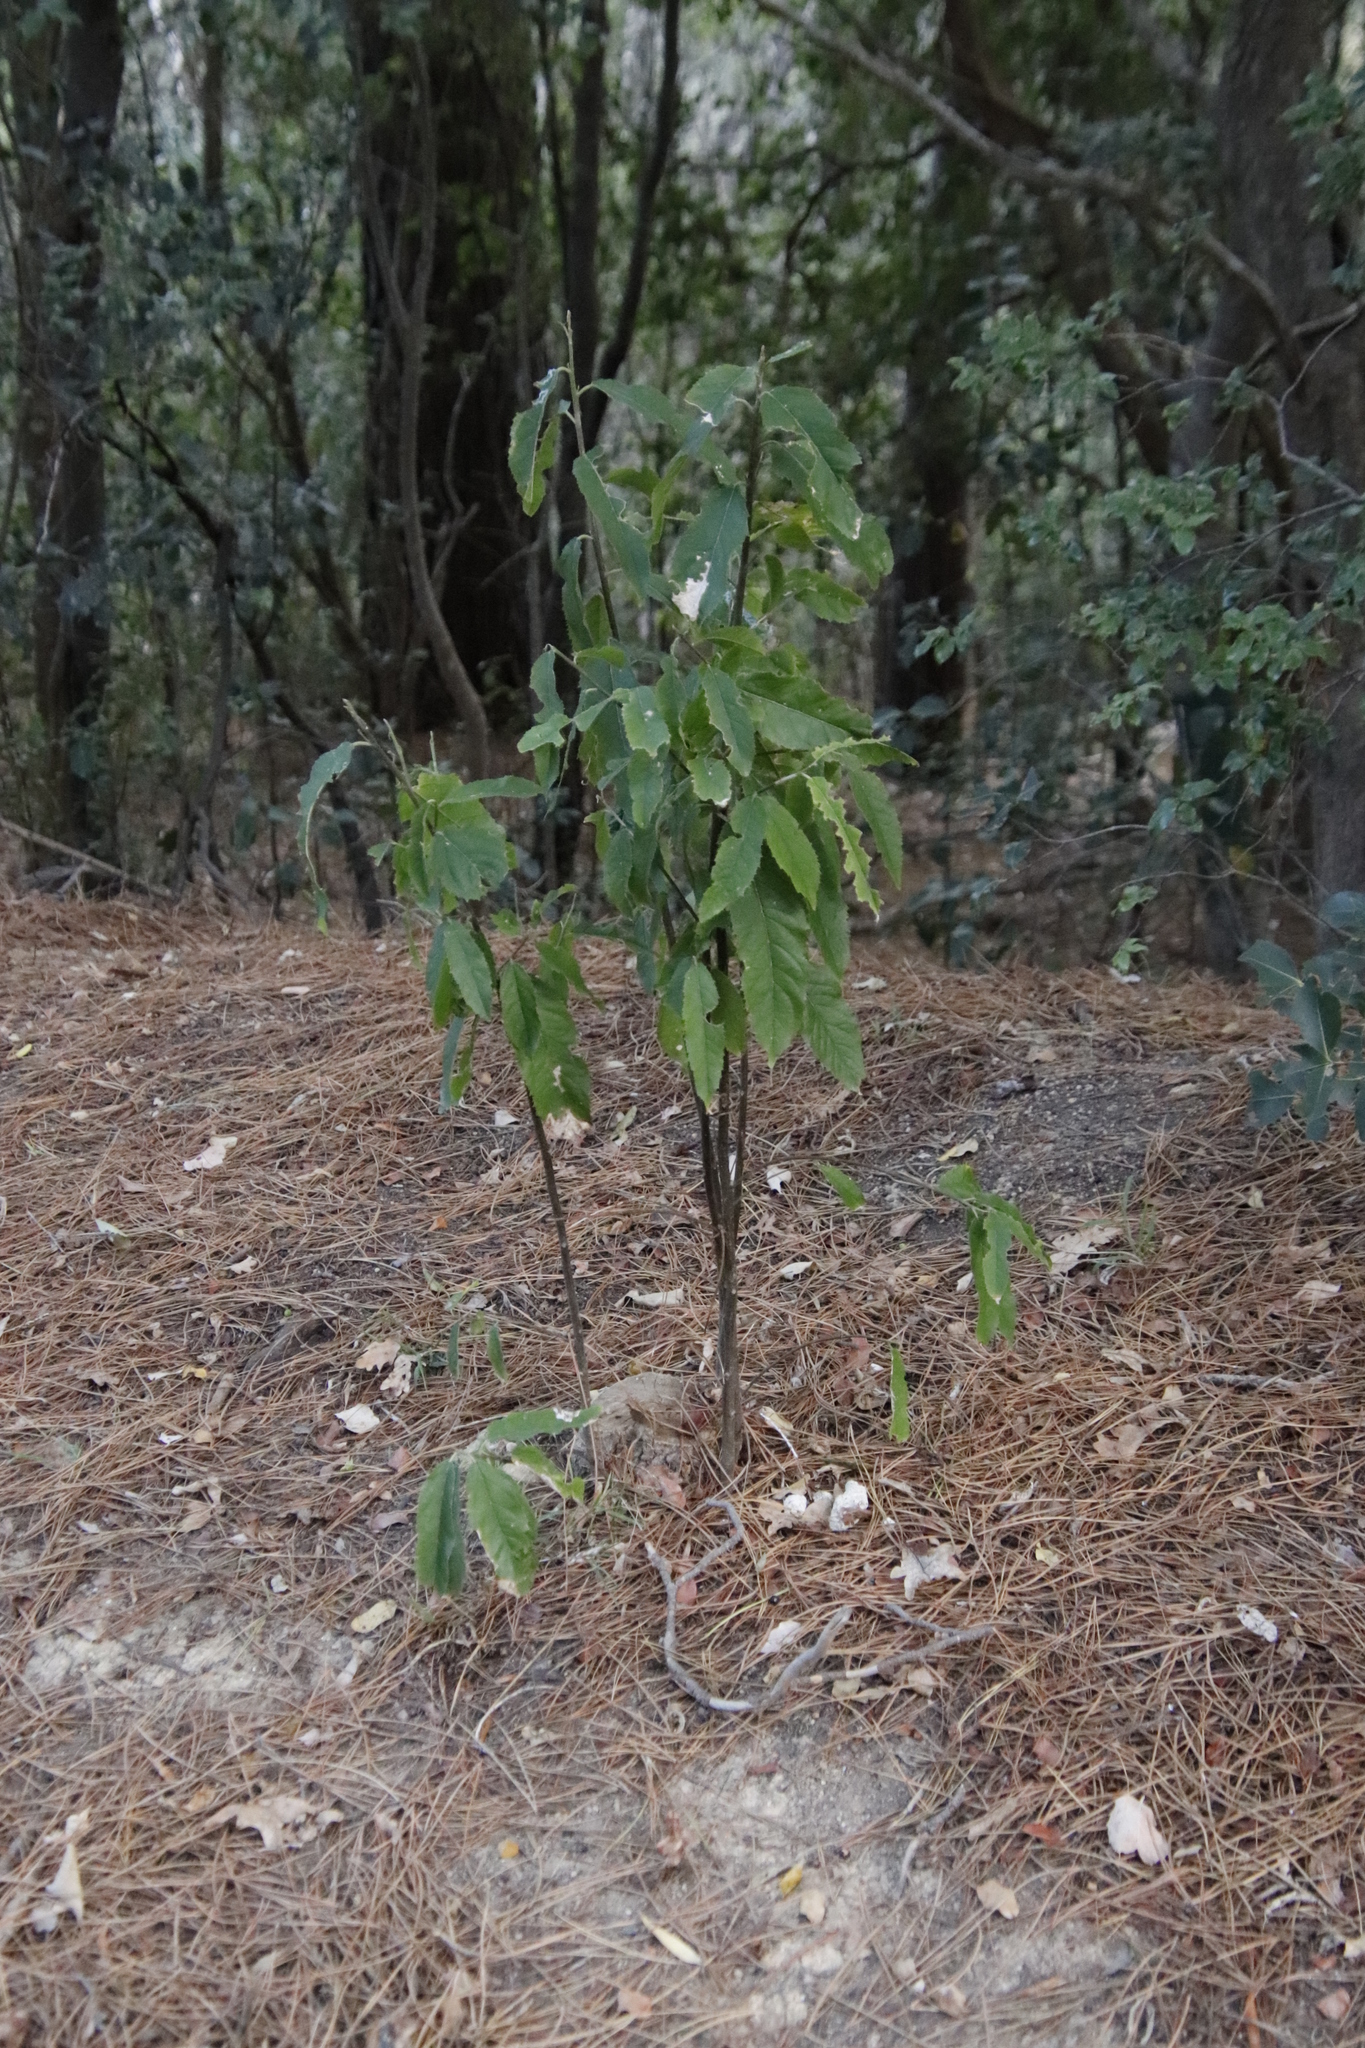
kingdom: Plantae
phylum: Tracheophyta
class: Magnoliopsida
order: Malpighiales
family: Achariaceae
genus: Kiggelaria
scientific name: Kiggelaria africana
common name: Wild peach
